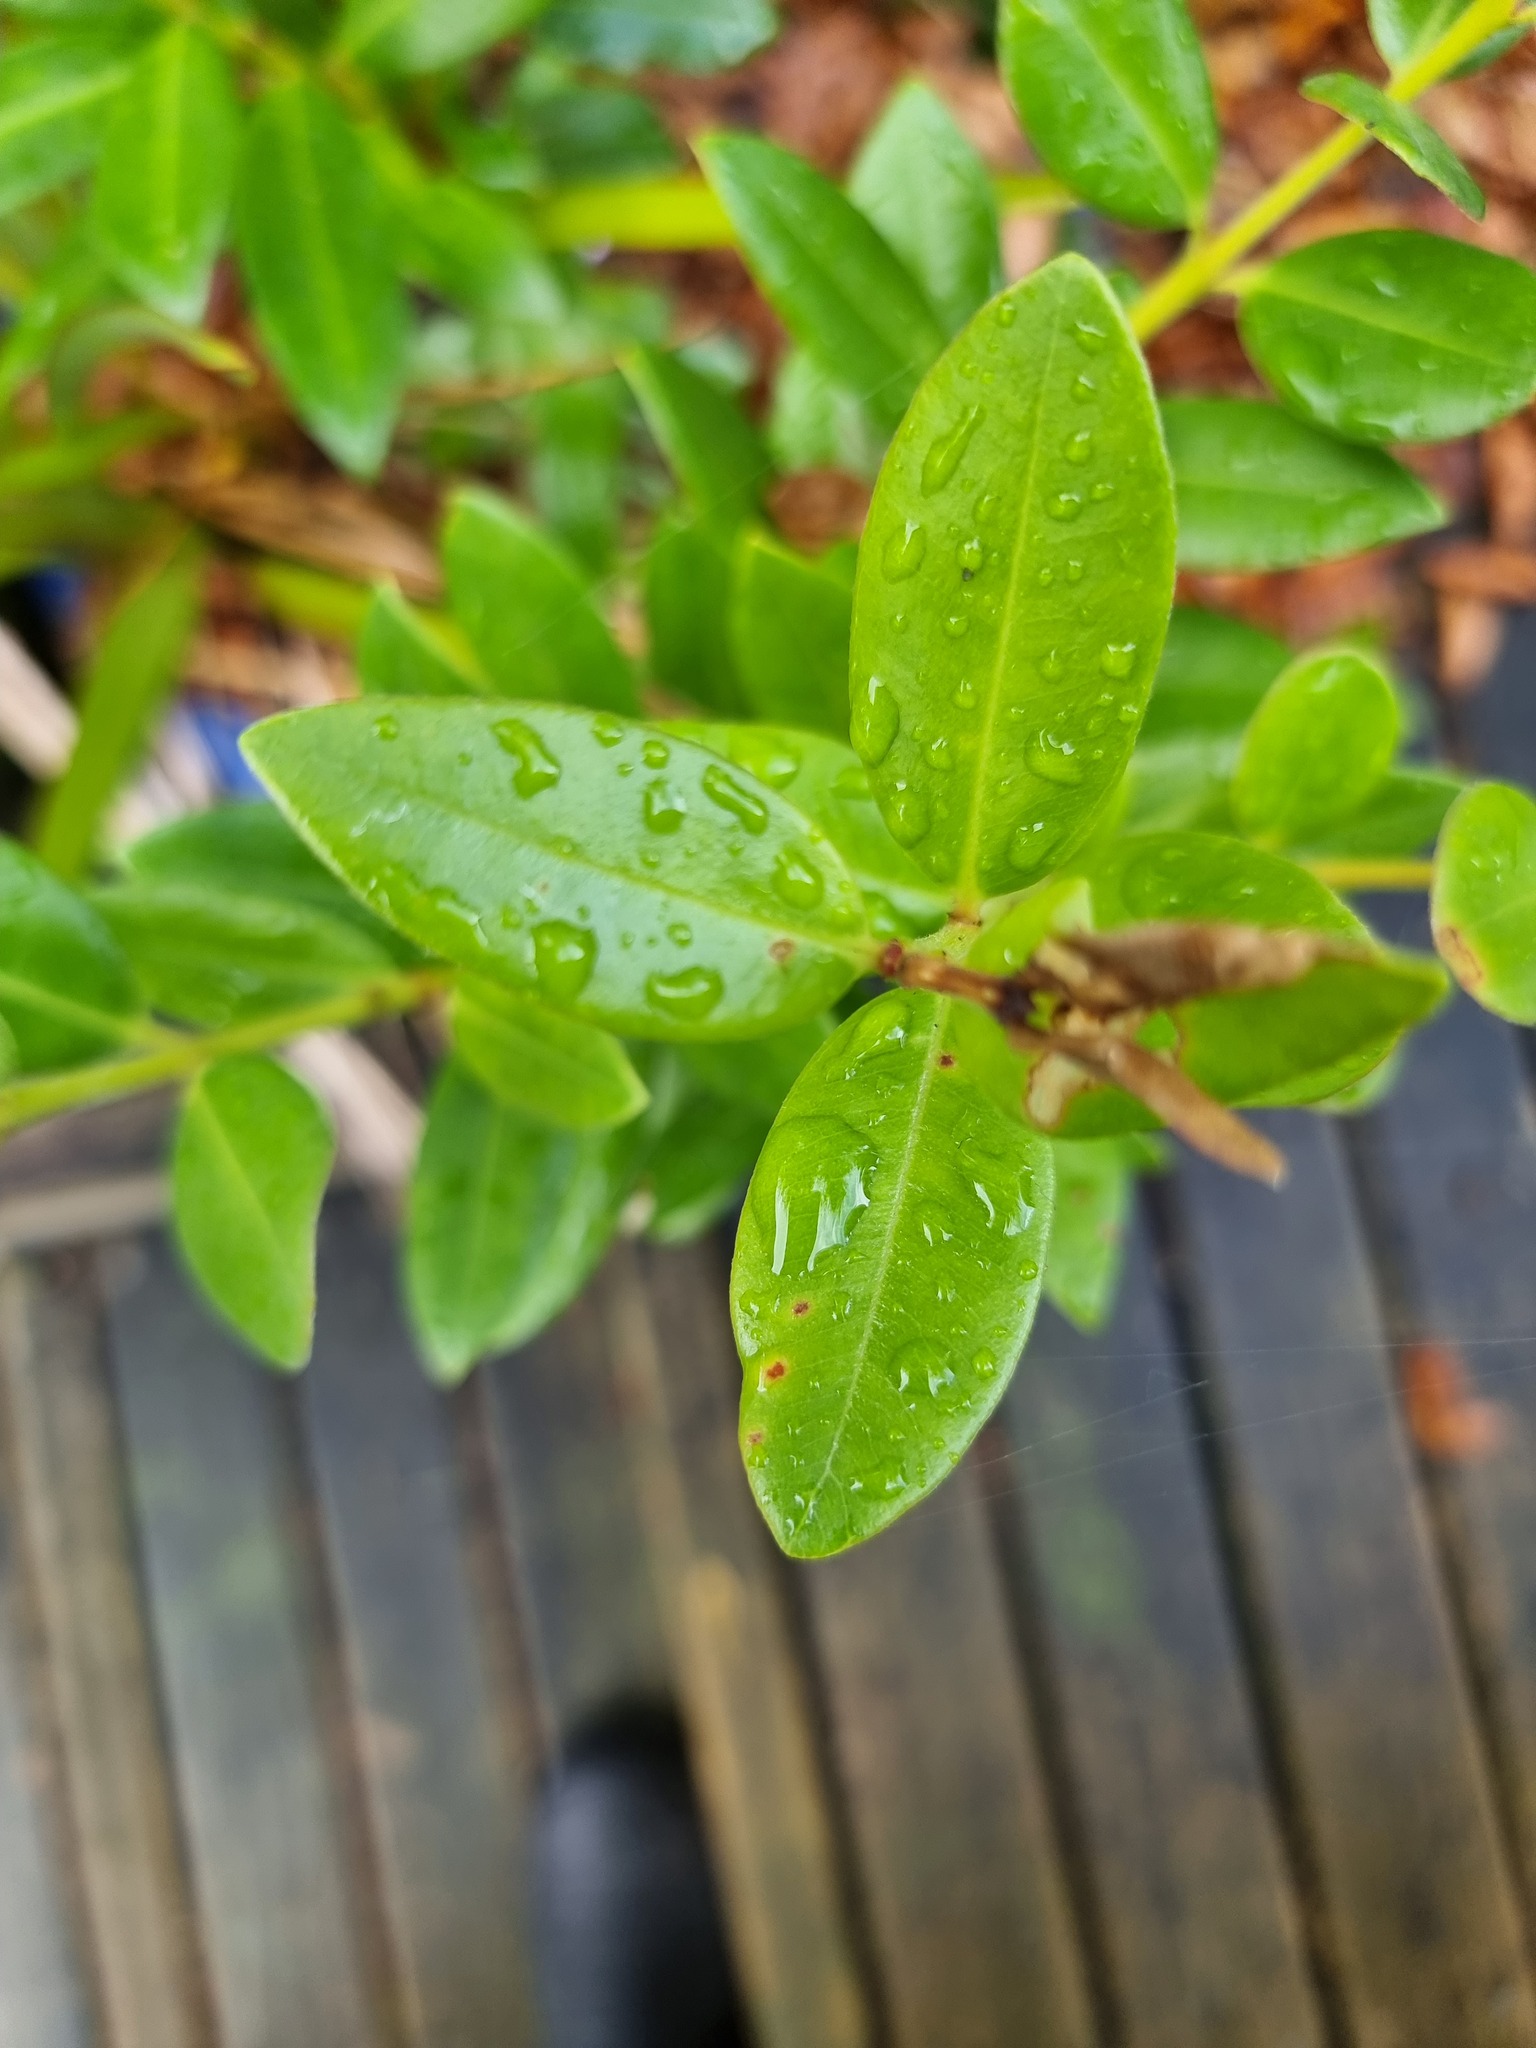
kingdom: Plantae
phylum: Tracheophyta
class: Magnoliopsida
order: Myrtales
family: Myrtaceae
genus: Metrosideros
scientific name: Metrosideros excelsa
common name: New zealand christmastree
